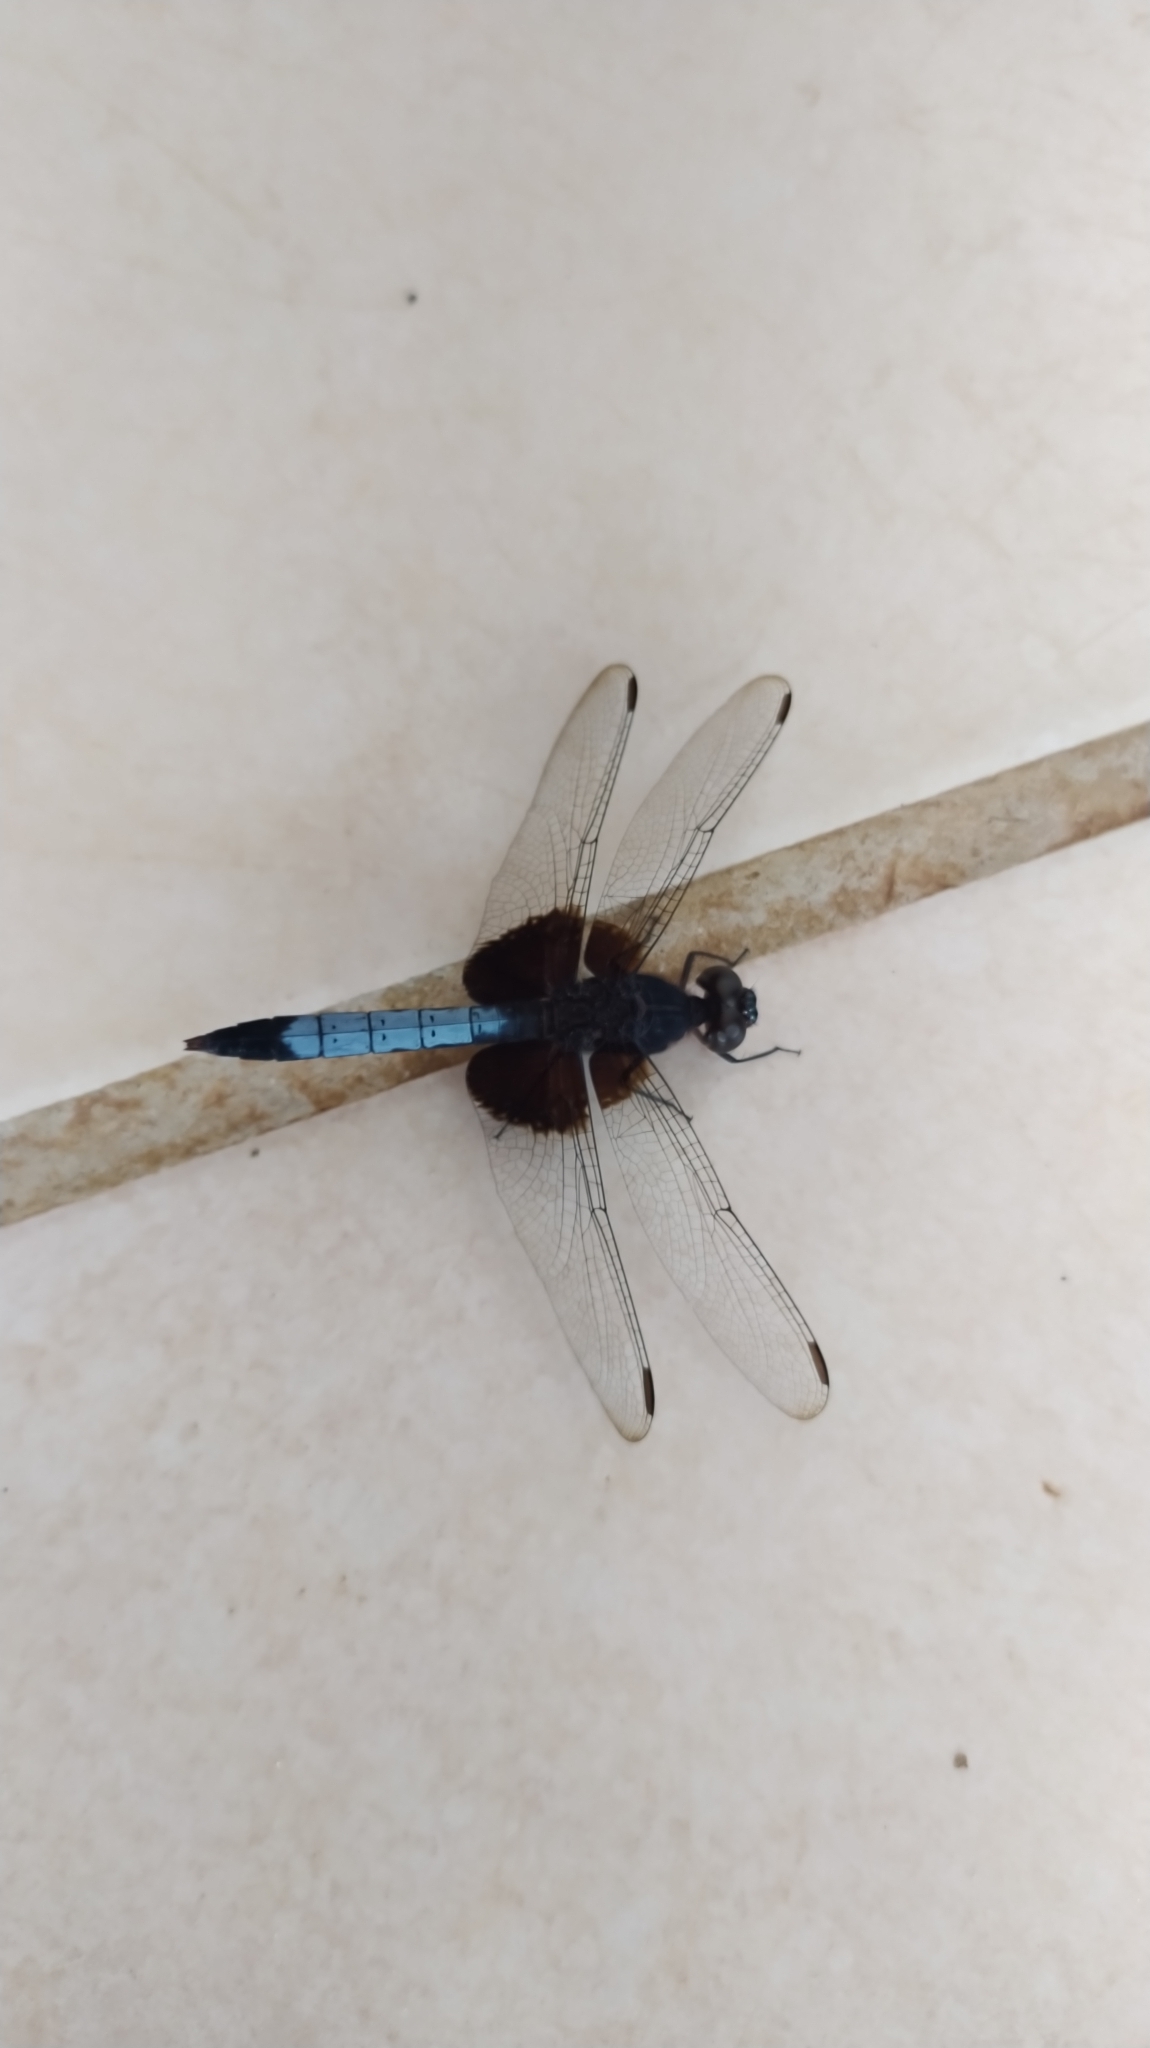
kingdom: Animalia
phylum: Arthropoda
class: Insecta
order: Odonata
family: Libellulidae
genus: Erythrodiplax
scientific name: Erythrodiplax unimaculata
